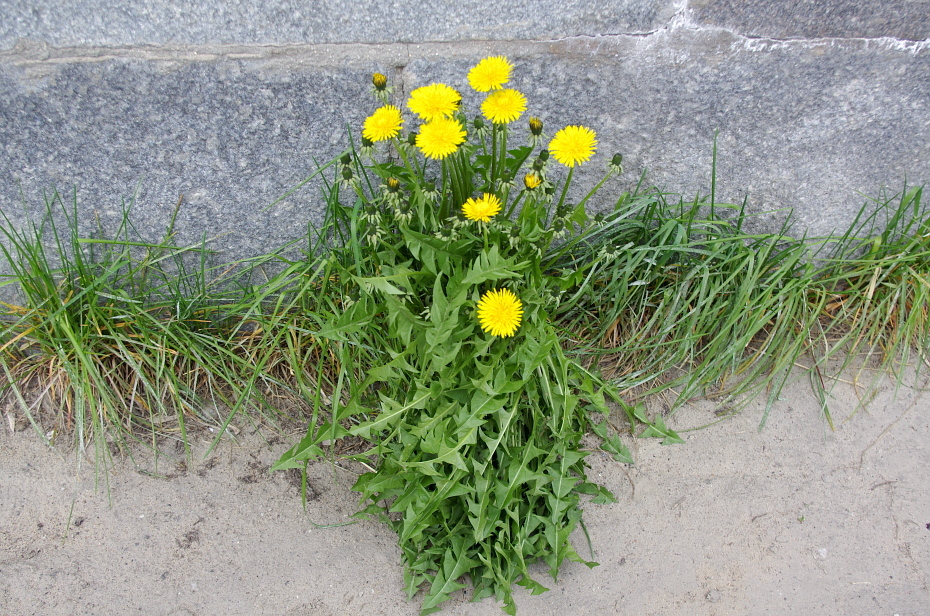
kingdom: Plantae
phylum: Tracheophyta
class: Magnoliopsida
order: Asterales
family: Asteraceae
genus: Taraxacum
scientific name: Taraxacum officinale
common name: Common dandelion
